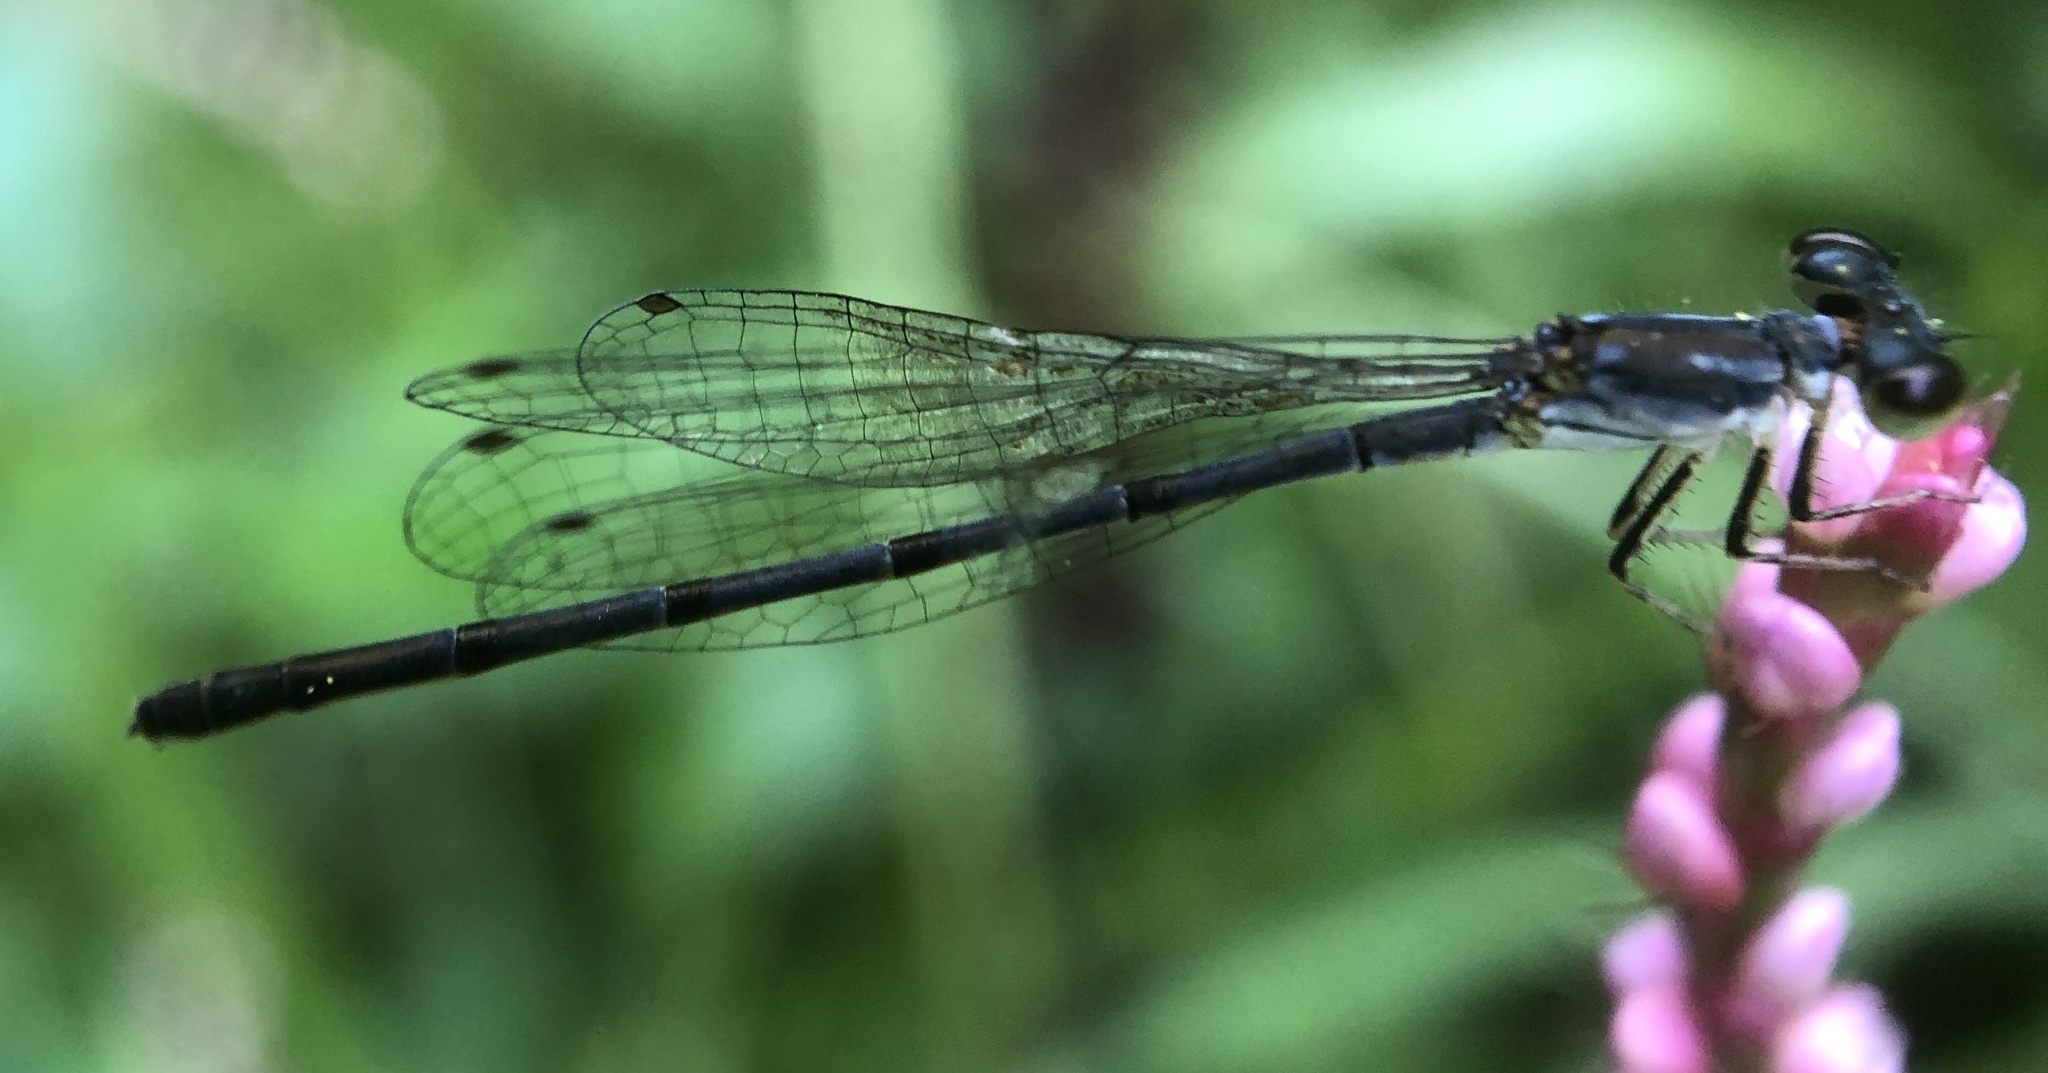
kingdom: Animalia
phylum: Arthropoda
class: Insecta
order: Odonata
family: Coenagrionidae
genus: Ischnura
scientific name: Ischnura posita
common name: Fragile forktail
